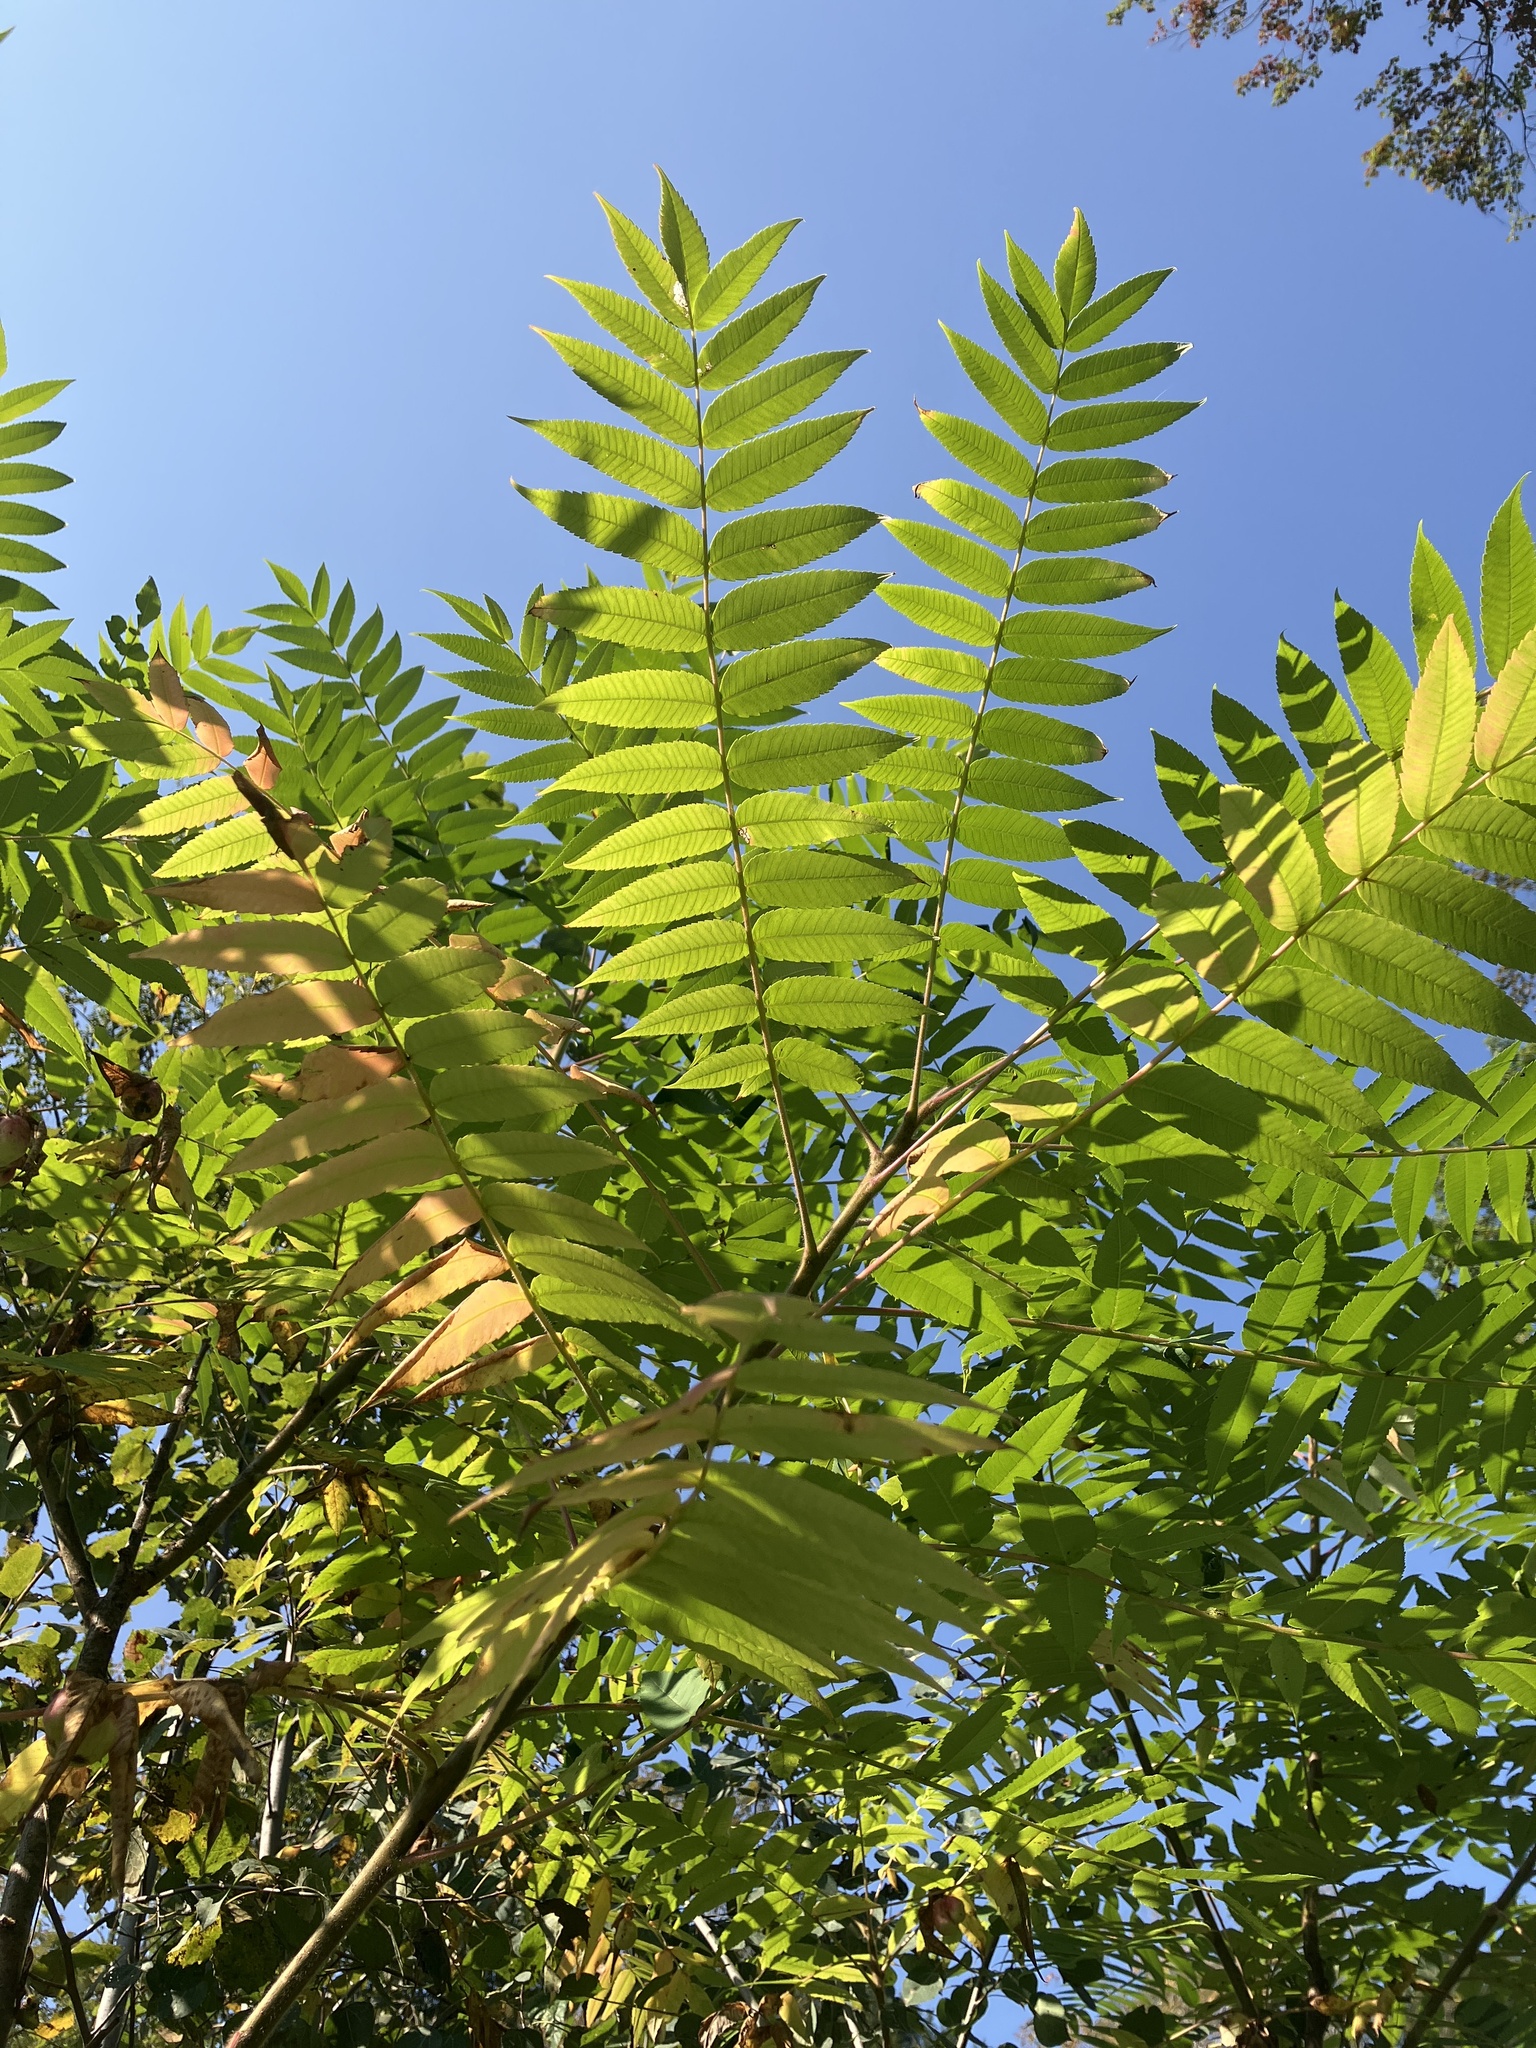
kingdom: Plantae
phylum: Tracheophyta
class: Magnoliopsida
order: Sapindales
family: Anacardiaceae
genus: Rhus
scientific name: Rhus typhina
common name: Staghorn sumac
